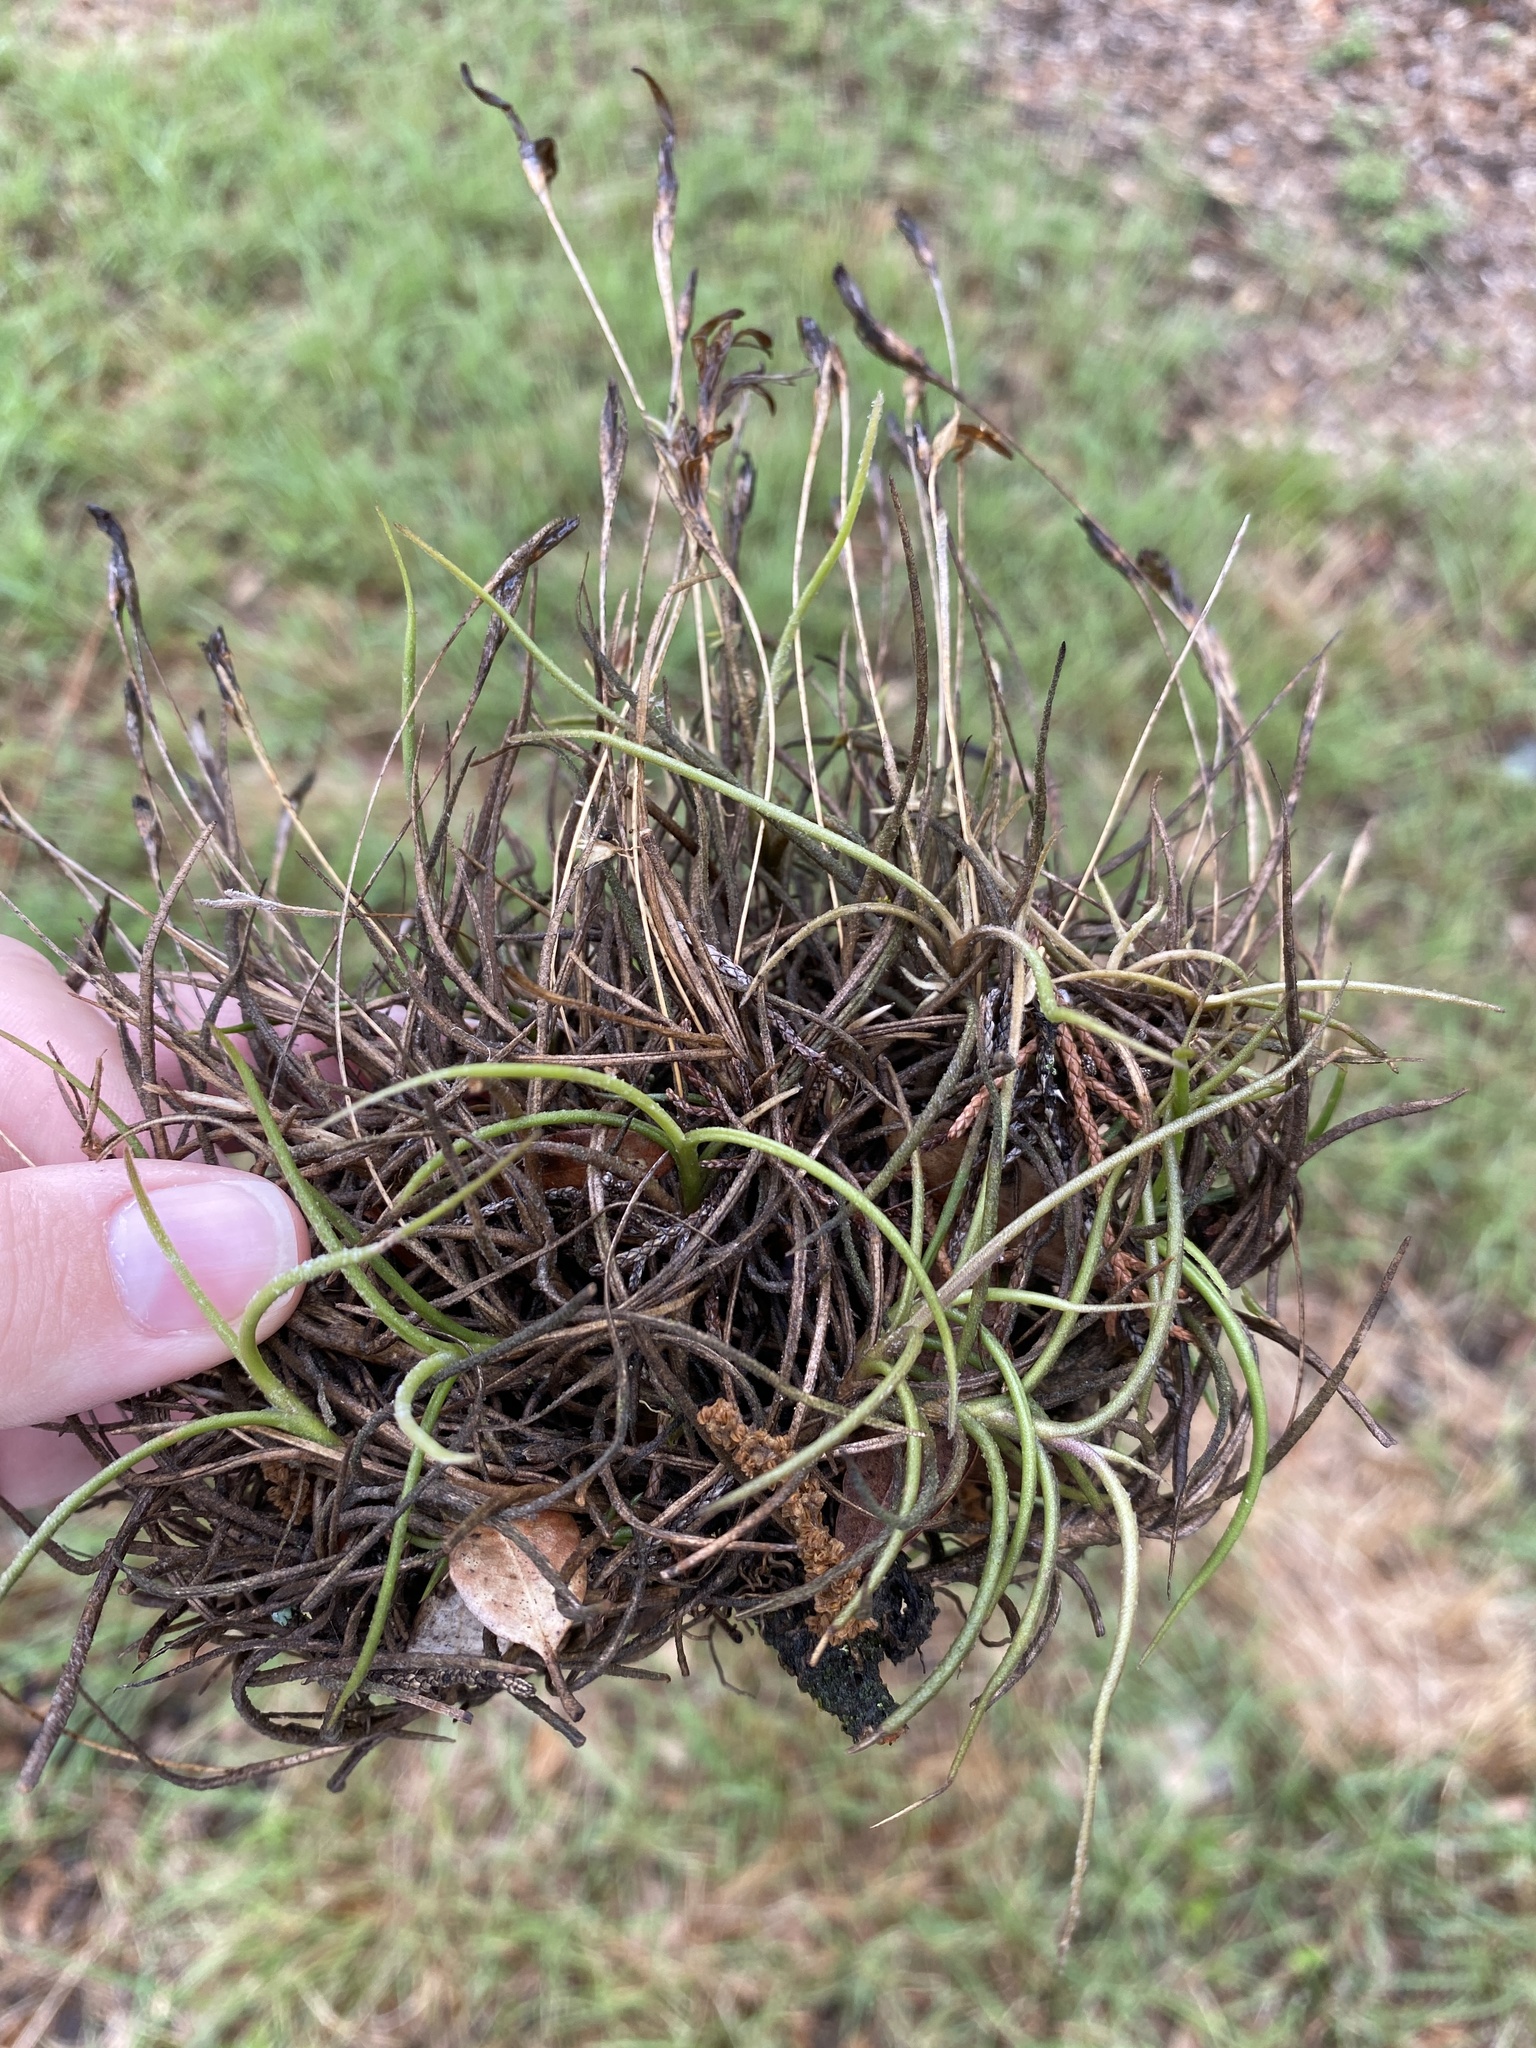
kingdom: Plantae
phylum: Tracheophyta
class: Liliopsida
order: Poales
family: Bromeliaceae
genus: Tillandsia
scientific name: Tillandsia recurvata
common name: Small ballmoss
